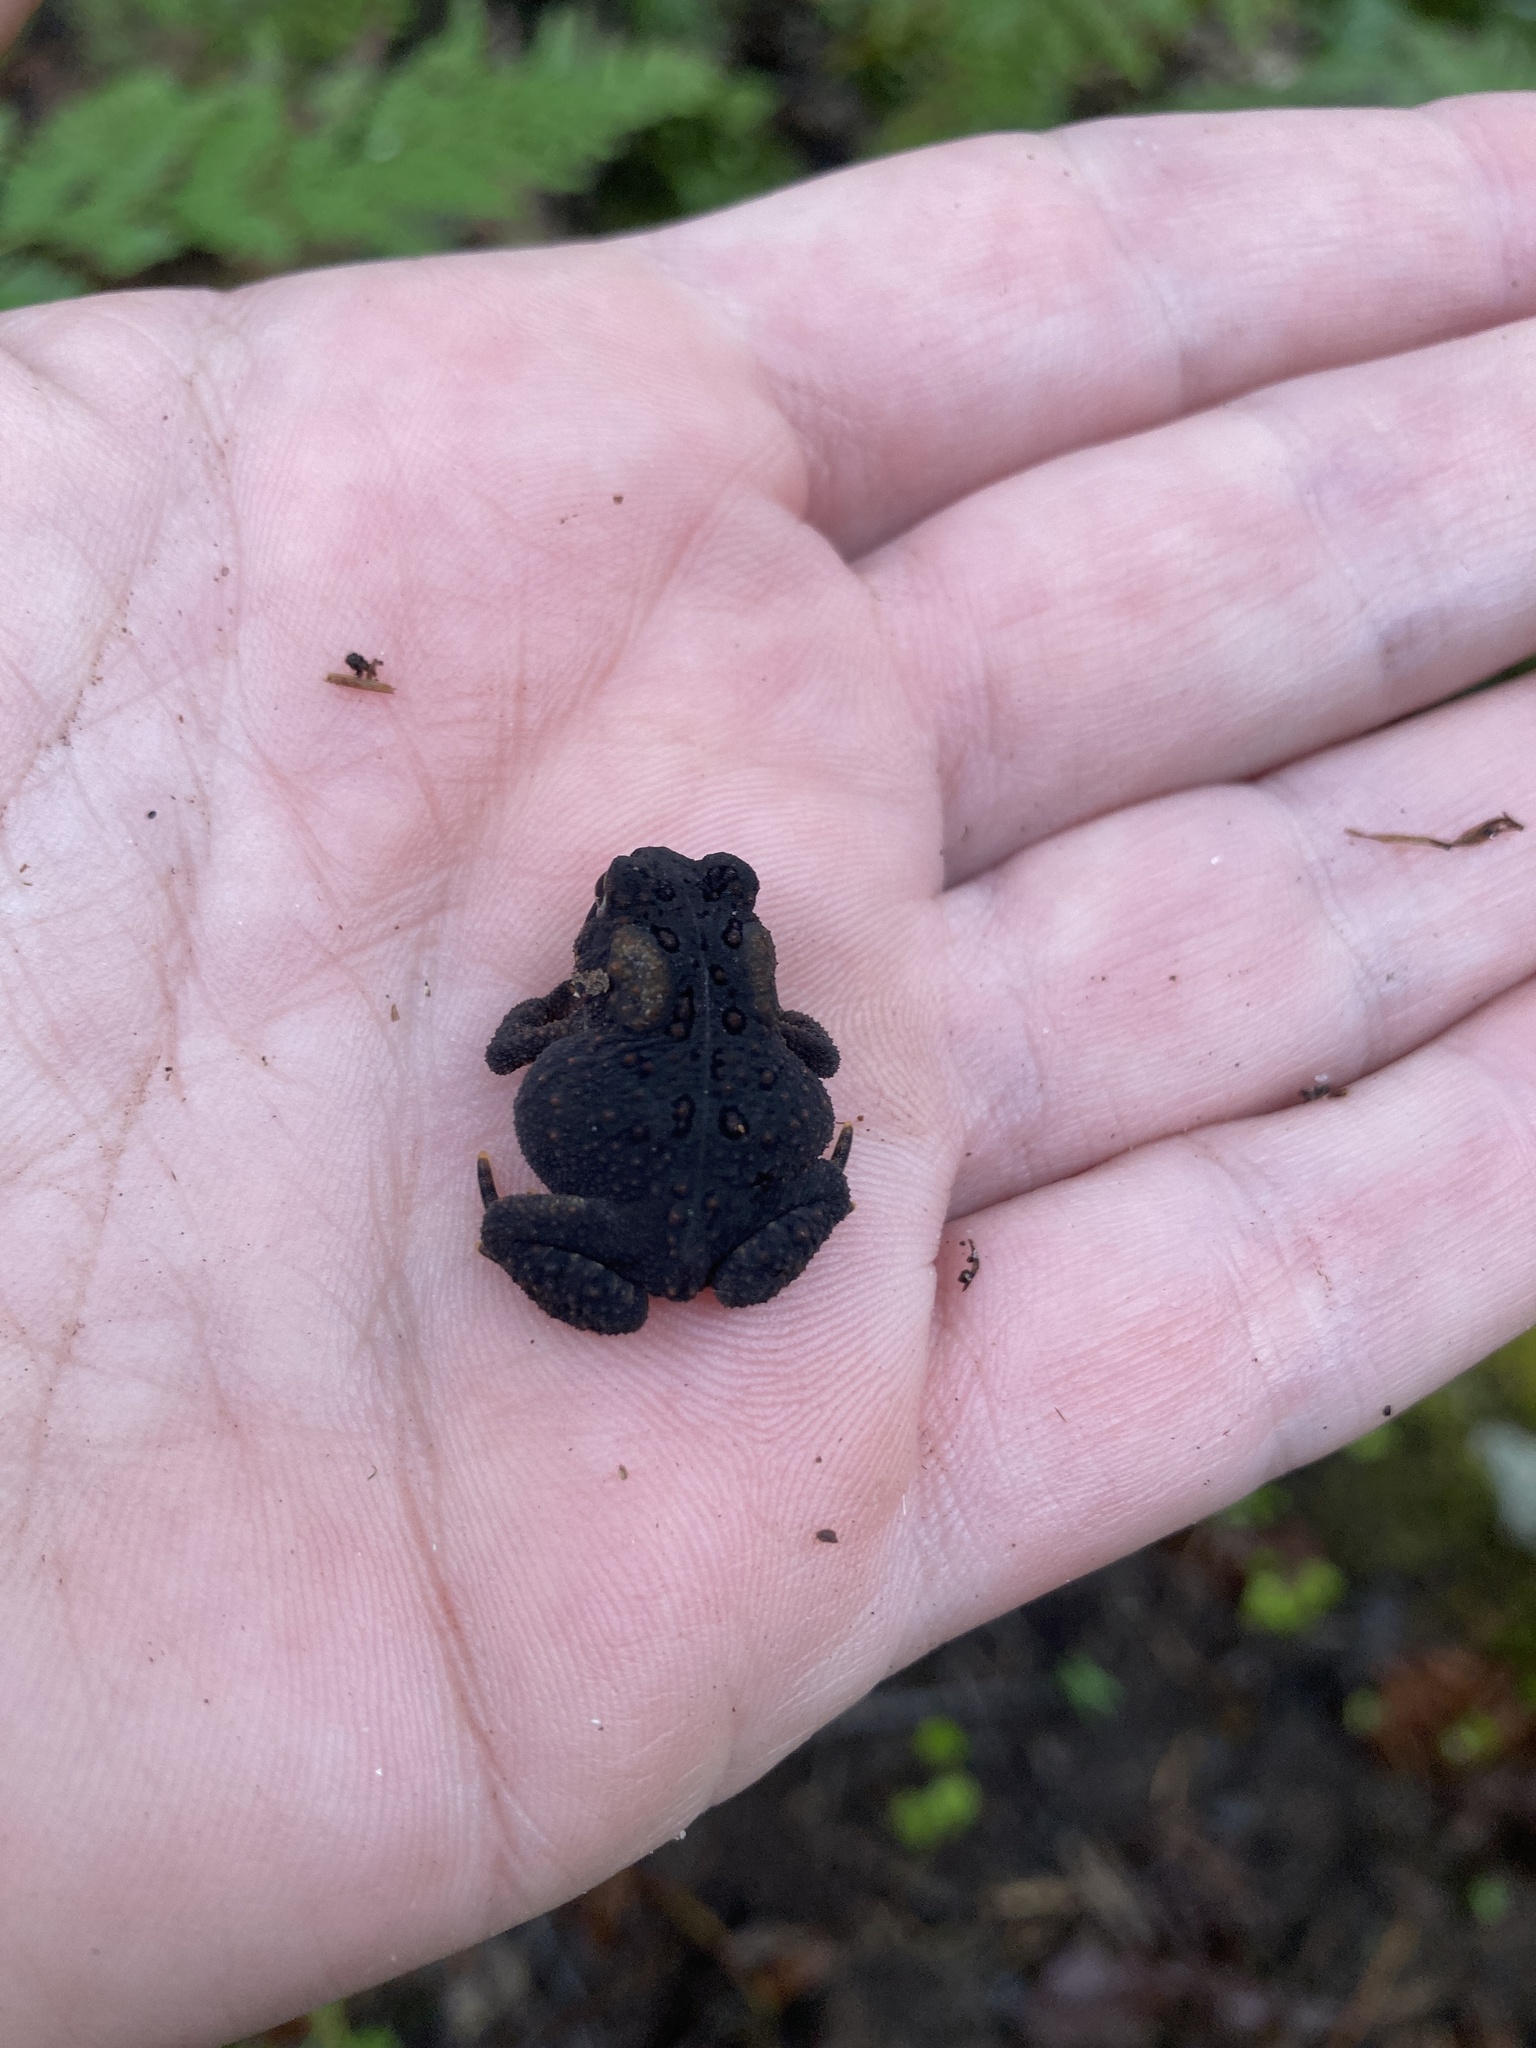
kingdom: Animalia
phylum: Chordata
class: Amphibia
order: Anura
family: Bufonidae
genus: Anaxyrus
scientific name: Anaxyrus americanus
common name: American toad
